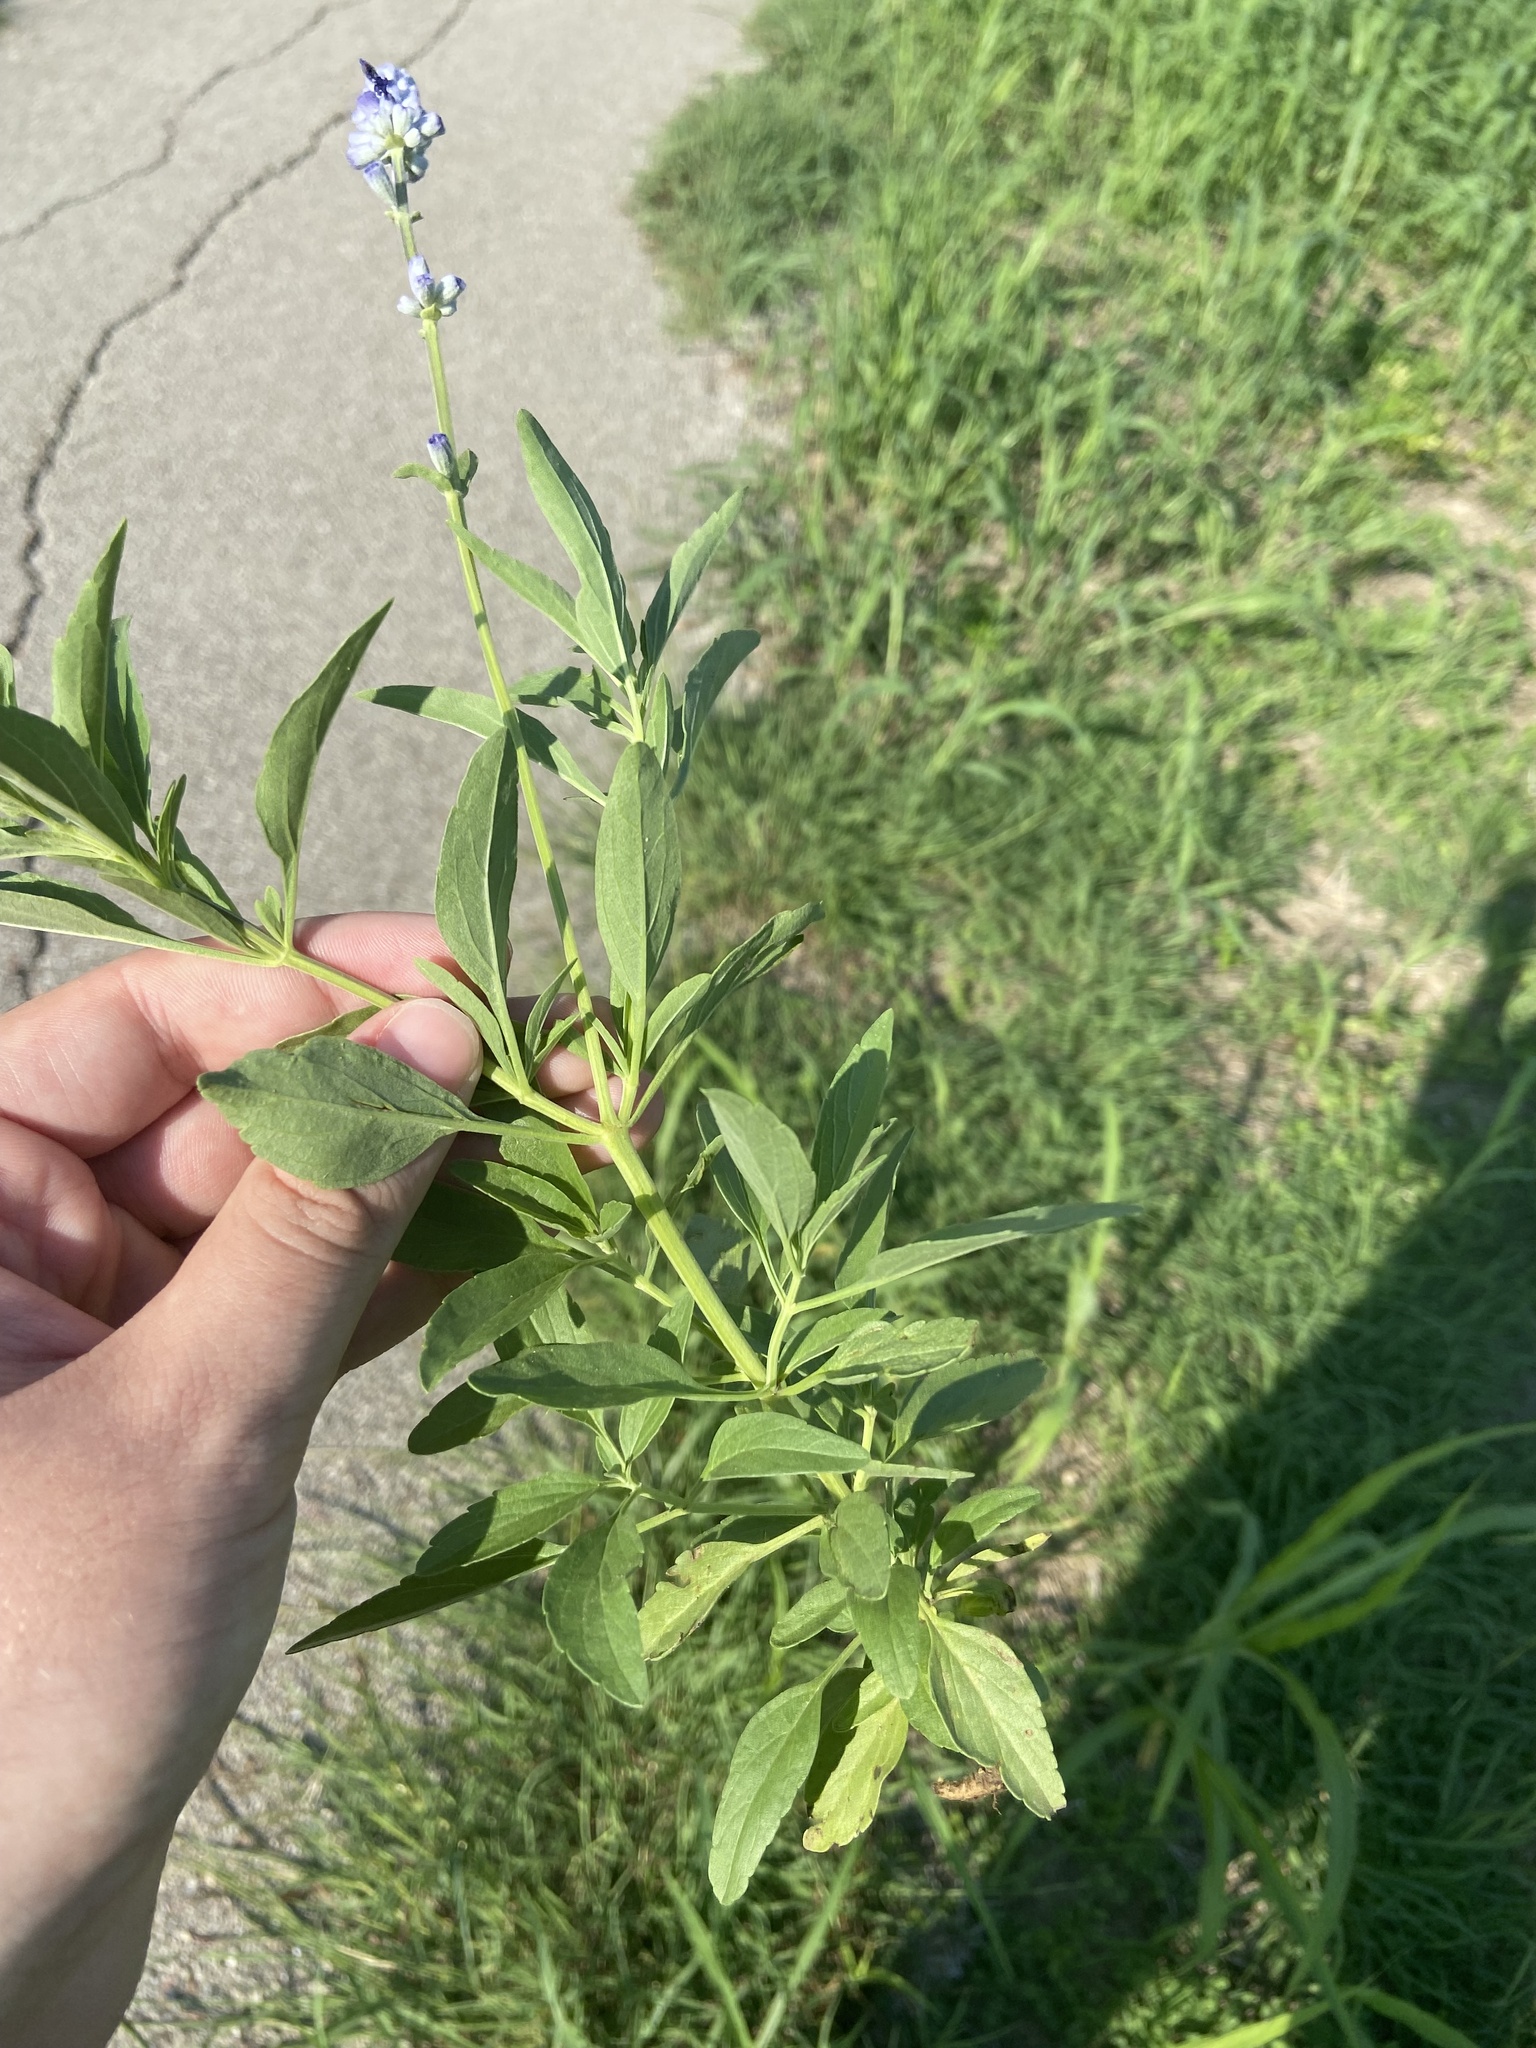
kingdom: Plantae
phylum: Tracheophyta
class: Magnoliopsida
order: Lamiales
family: Lamiaceae
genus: Salvia
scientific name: Salvia farinacea
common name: Mealy sage
